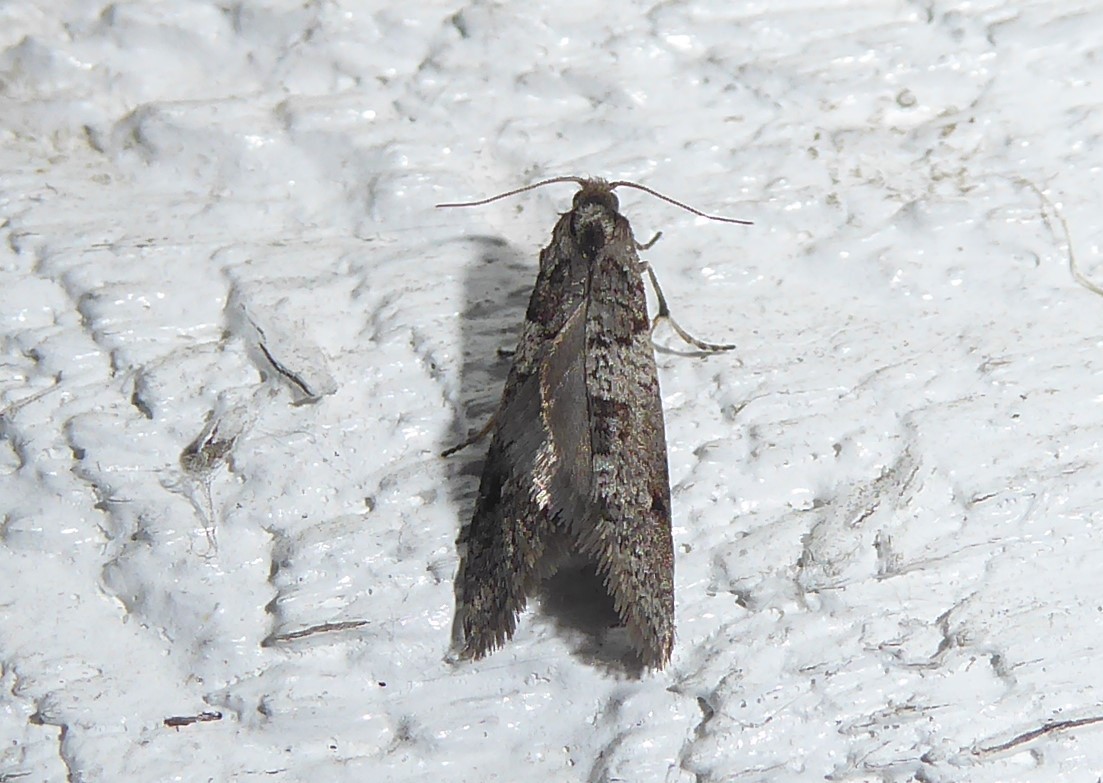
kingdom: Animalia
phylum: Arthropoda
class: Insecta
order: Lepidoptera
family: Psychidae
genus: Lepidoscia
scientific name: Lepidoscia heliochares
